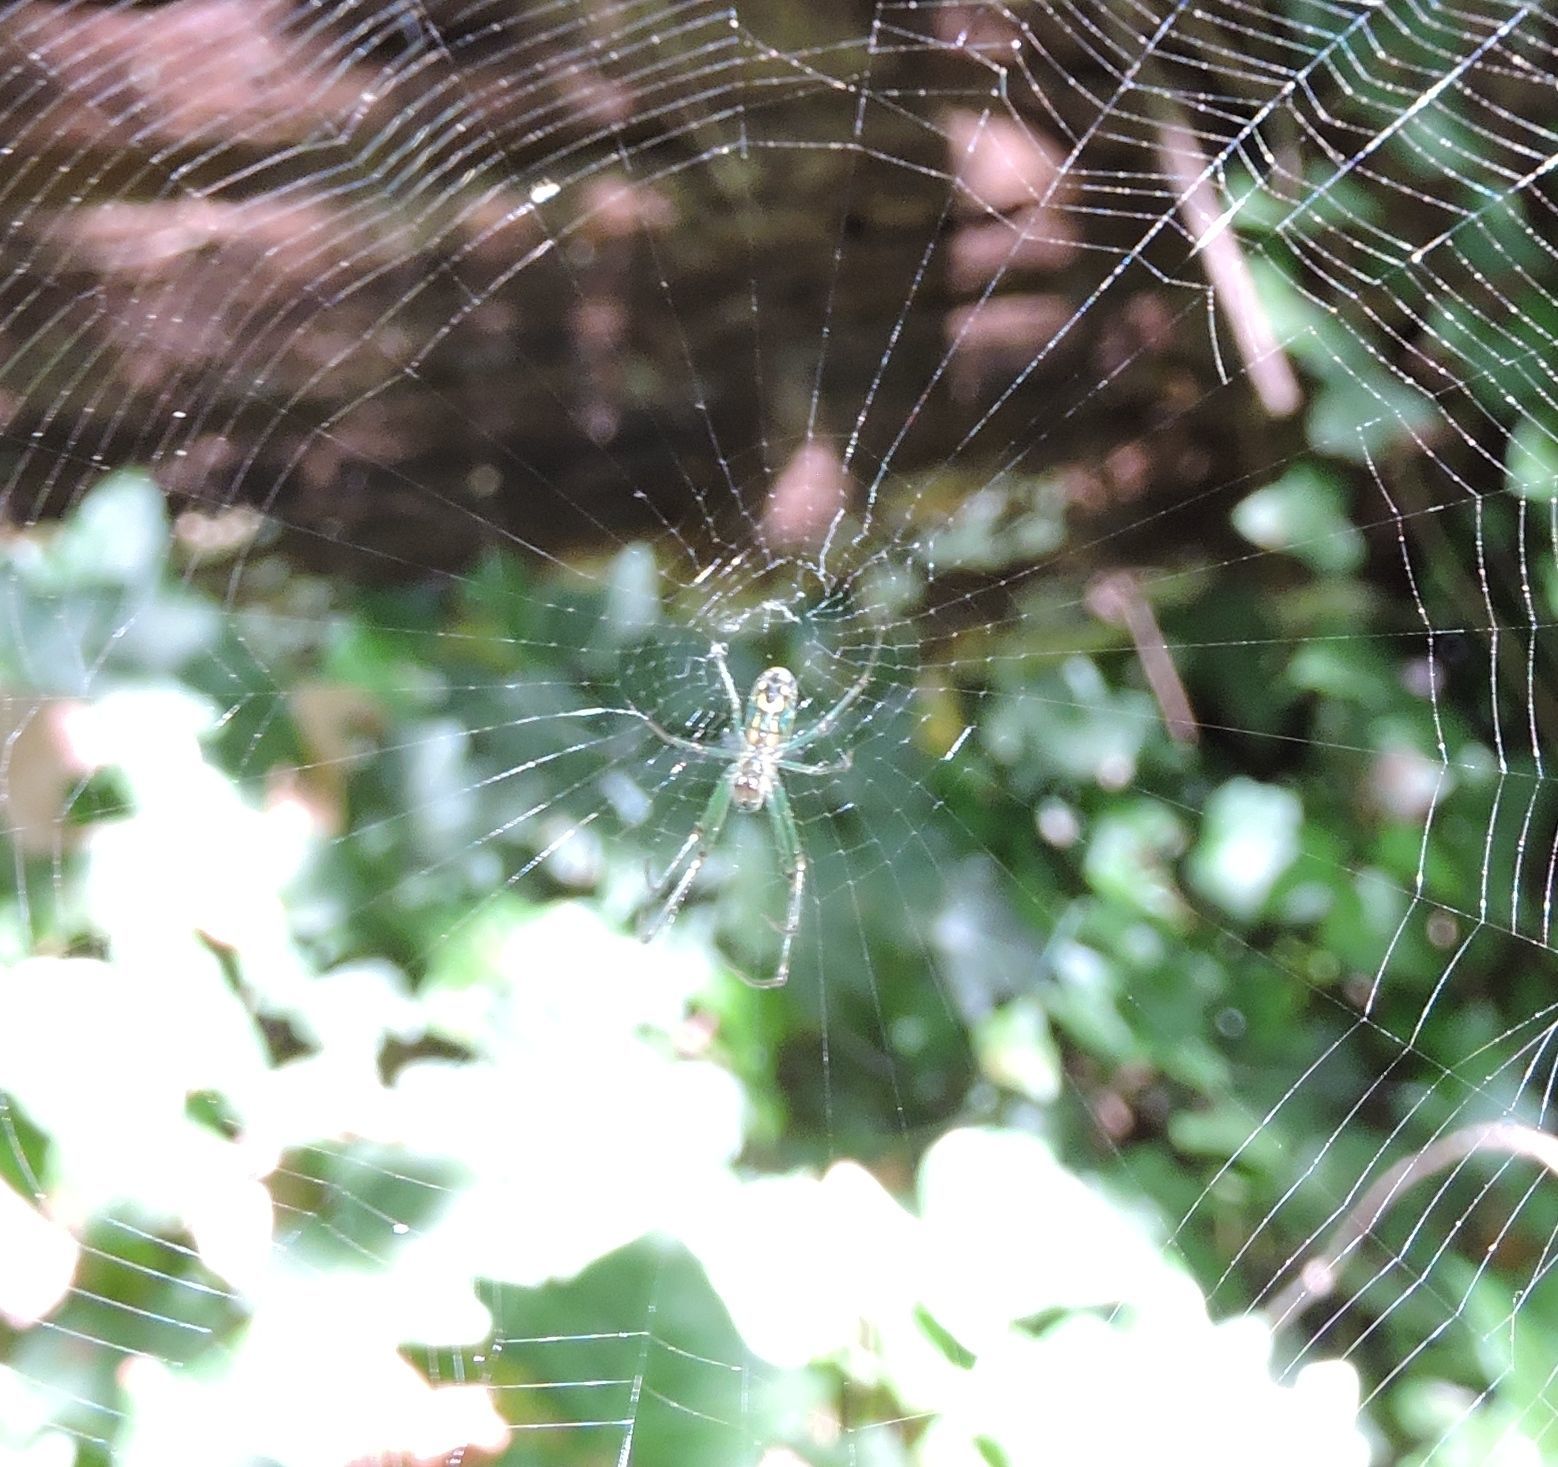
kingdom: Animalia
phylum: Arthropoda
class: Arachnida
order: Araneae
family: Tetragnathidae
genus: Leucauge
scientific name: Leucauge venusta
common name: Longjawed orb weavers
